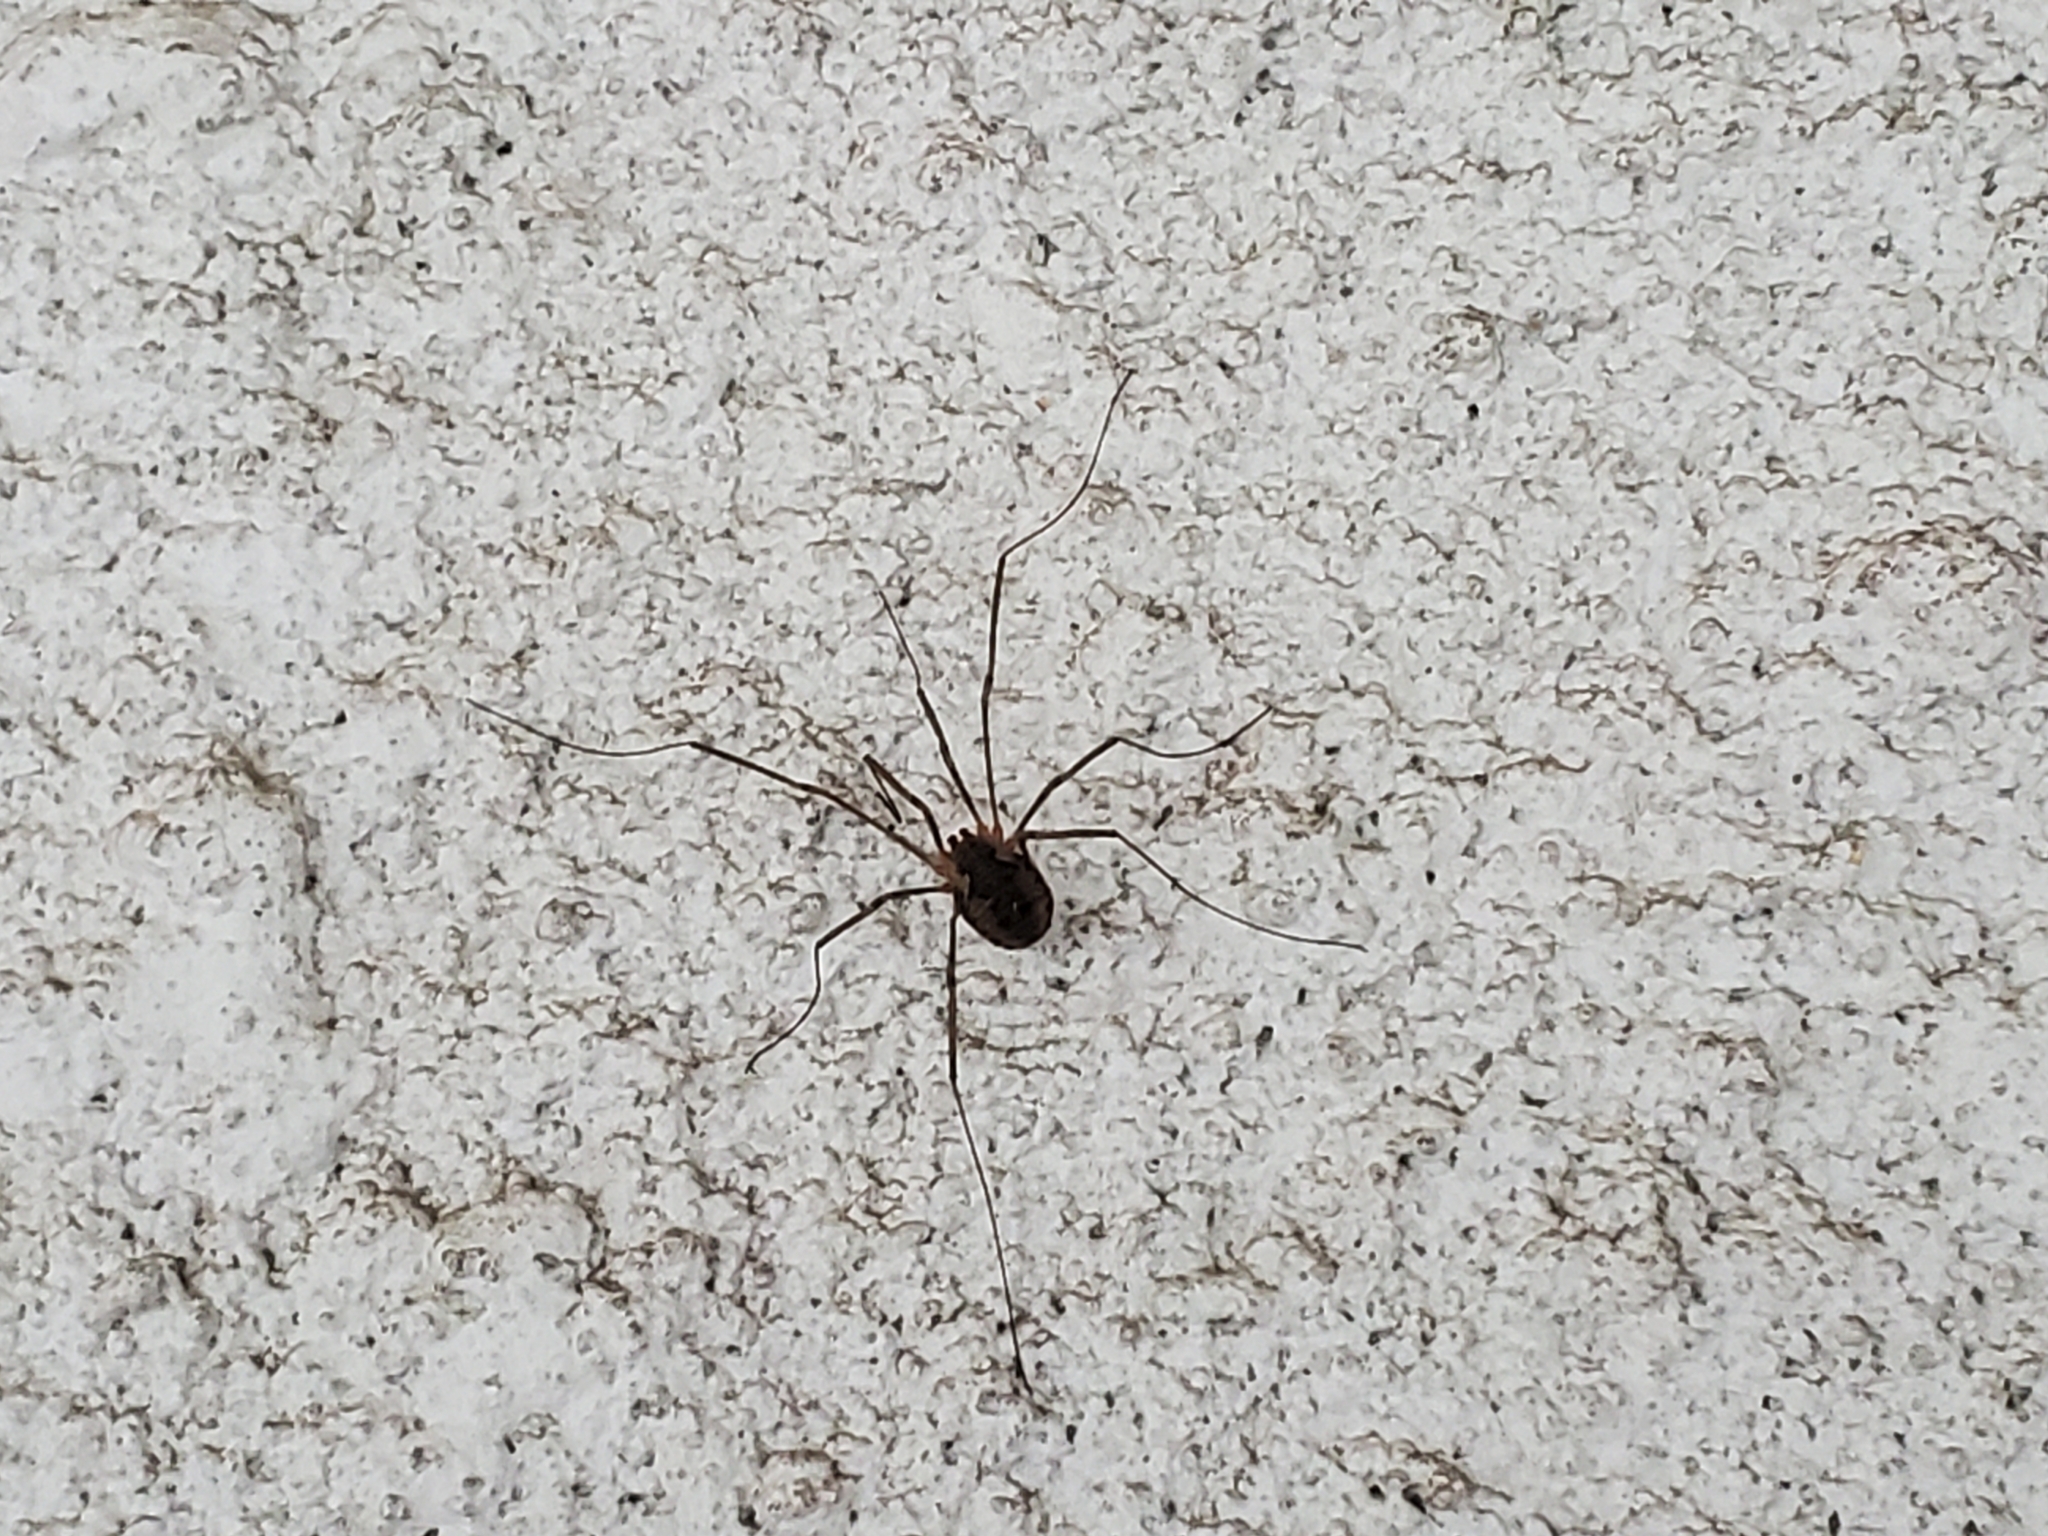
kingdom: Animalia
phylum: Arthropoda
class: Arachnida
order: Opiliones
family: Phalangiidae
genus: Phalangium
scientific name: Phalangium opilio
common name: Daddy longleg
